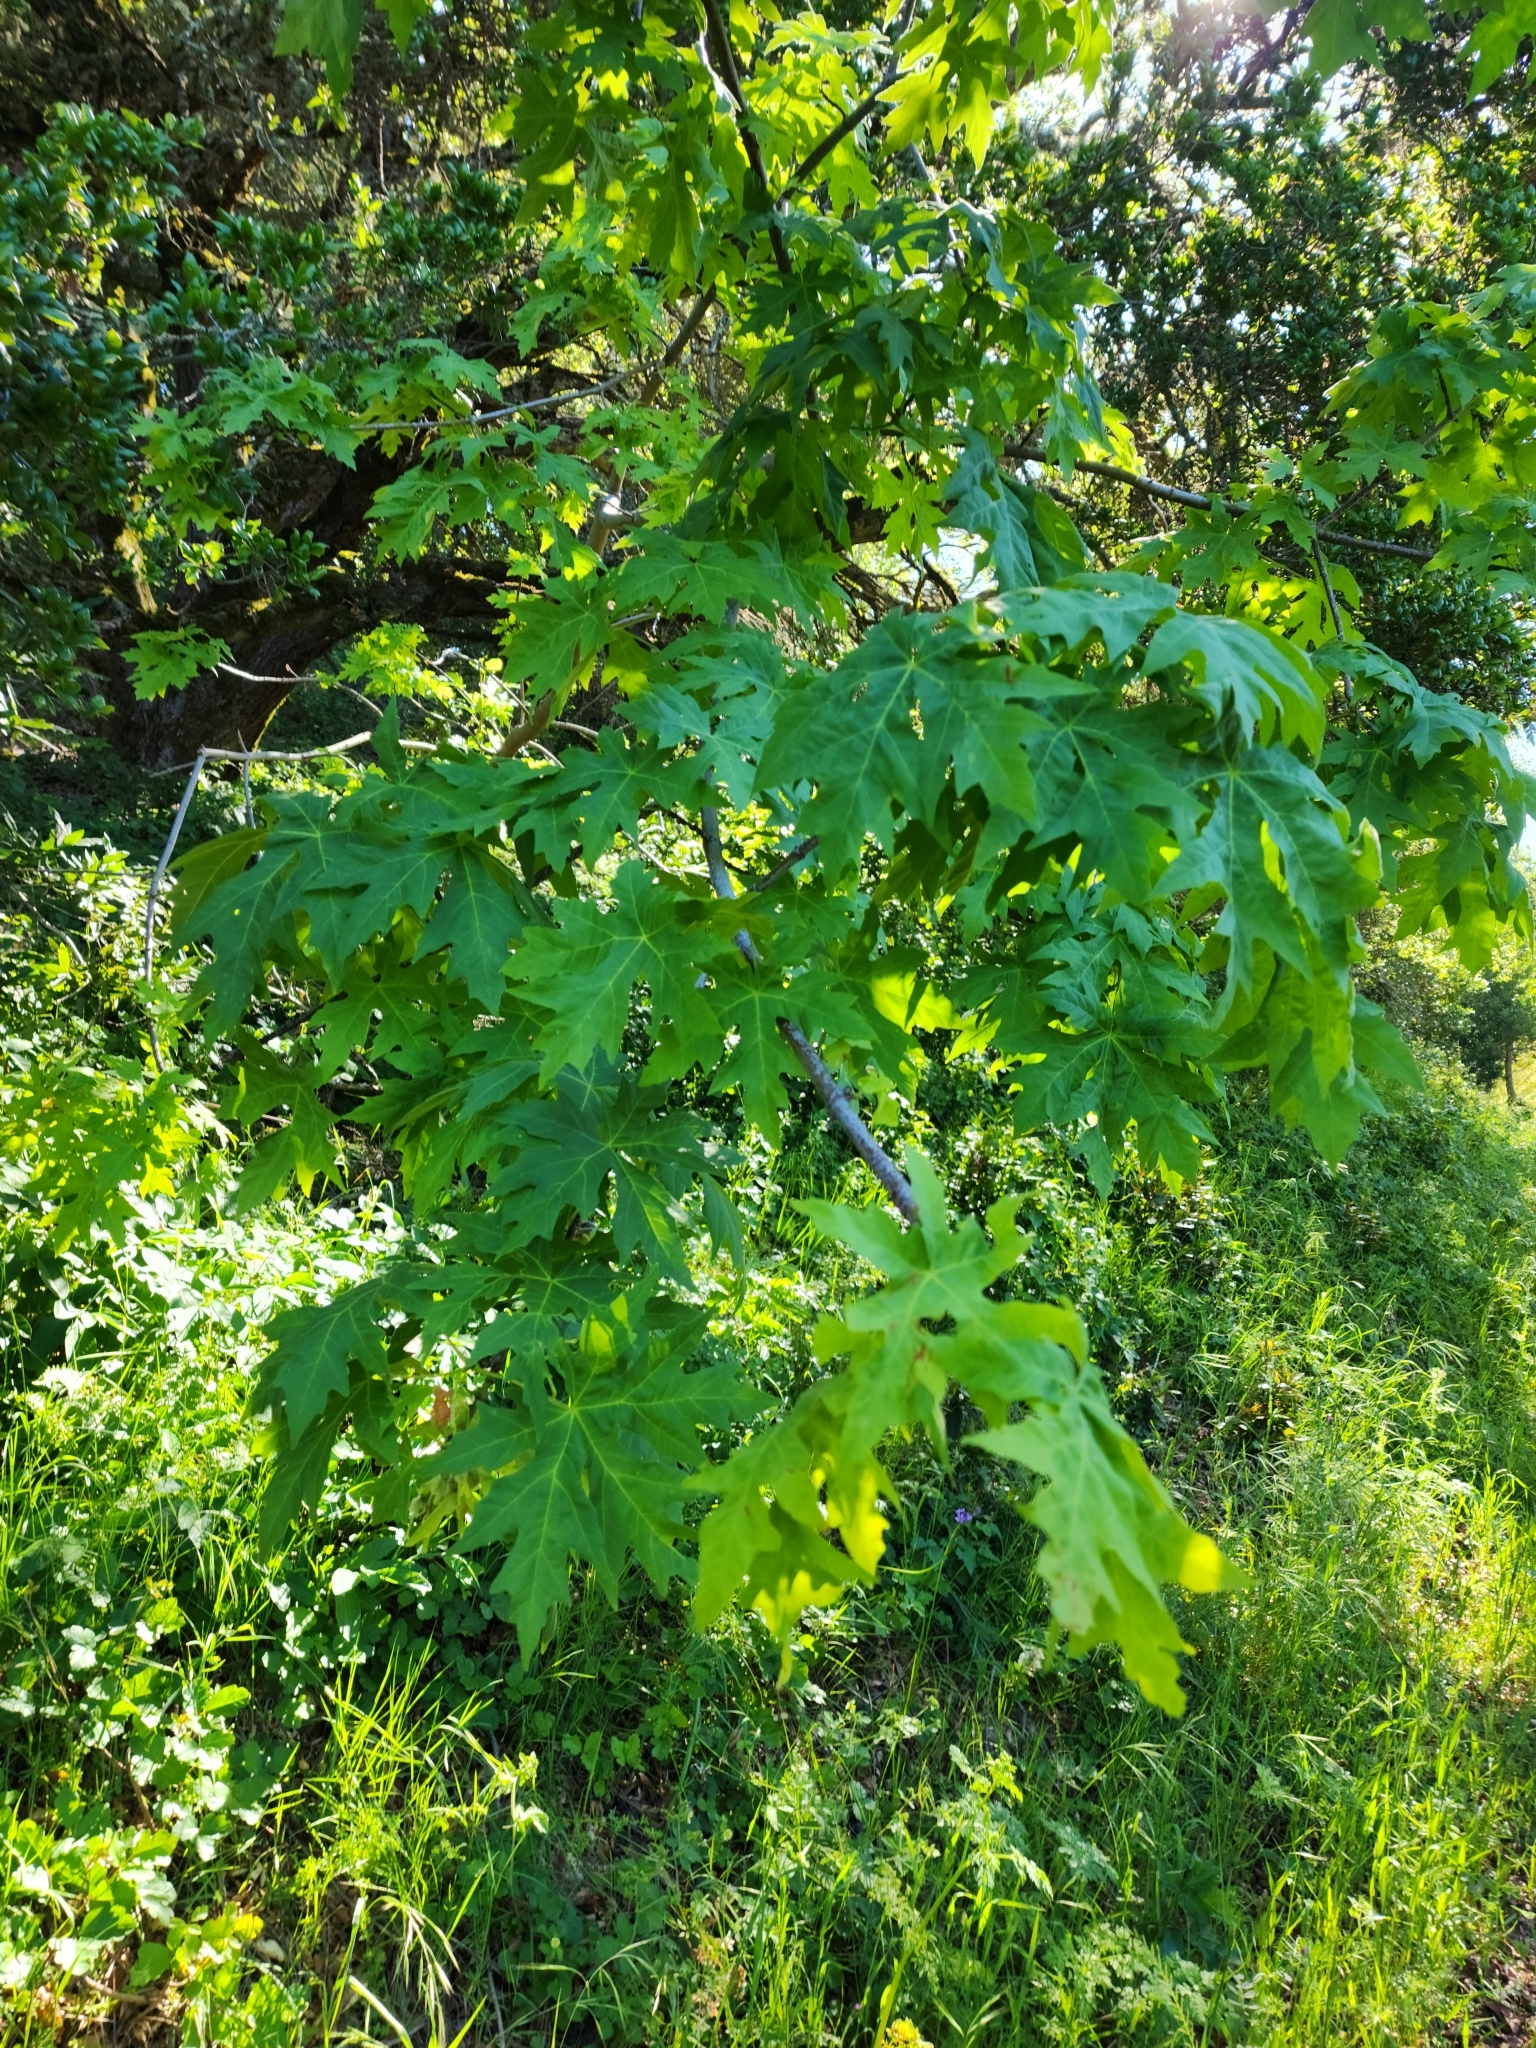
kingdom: Plantae
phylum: Tracheophyta
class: Magnoliopsida
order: Sapindales
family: Sapindaceae
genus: Acer
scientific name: Acer macrophyllum
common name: Oregon maple
